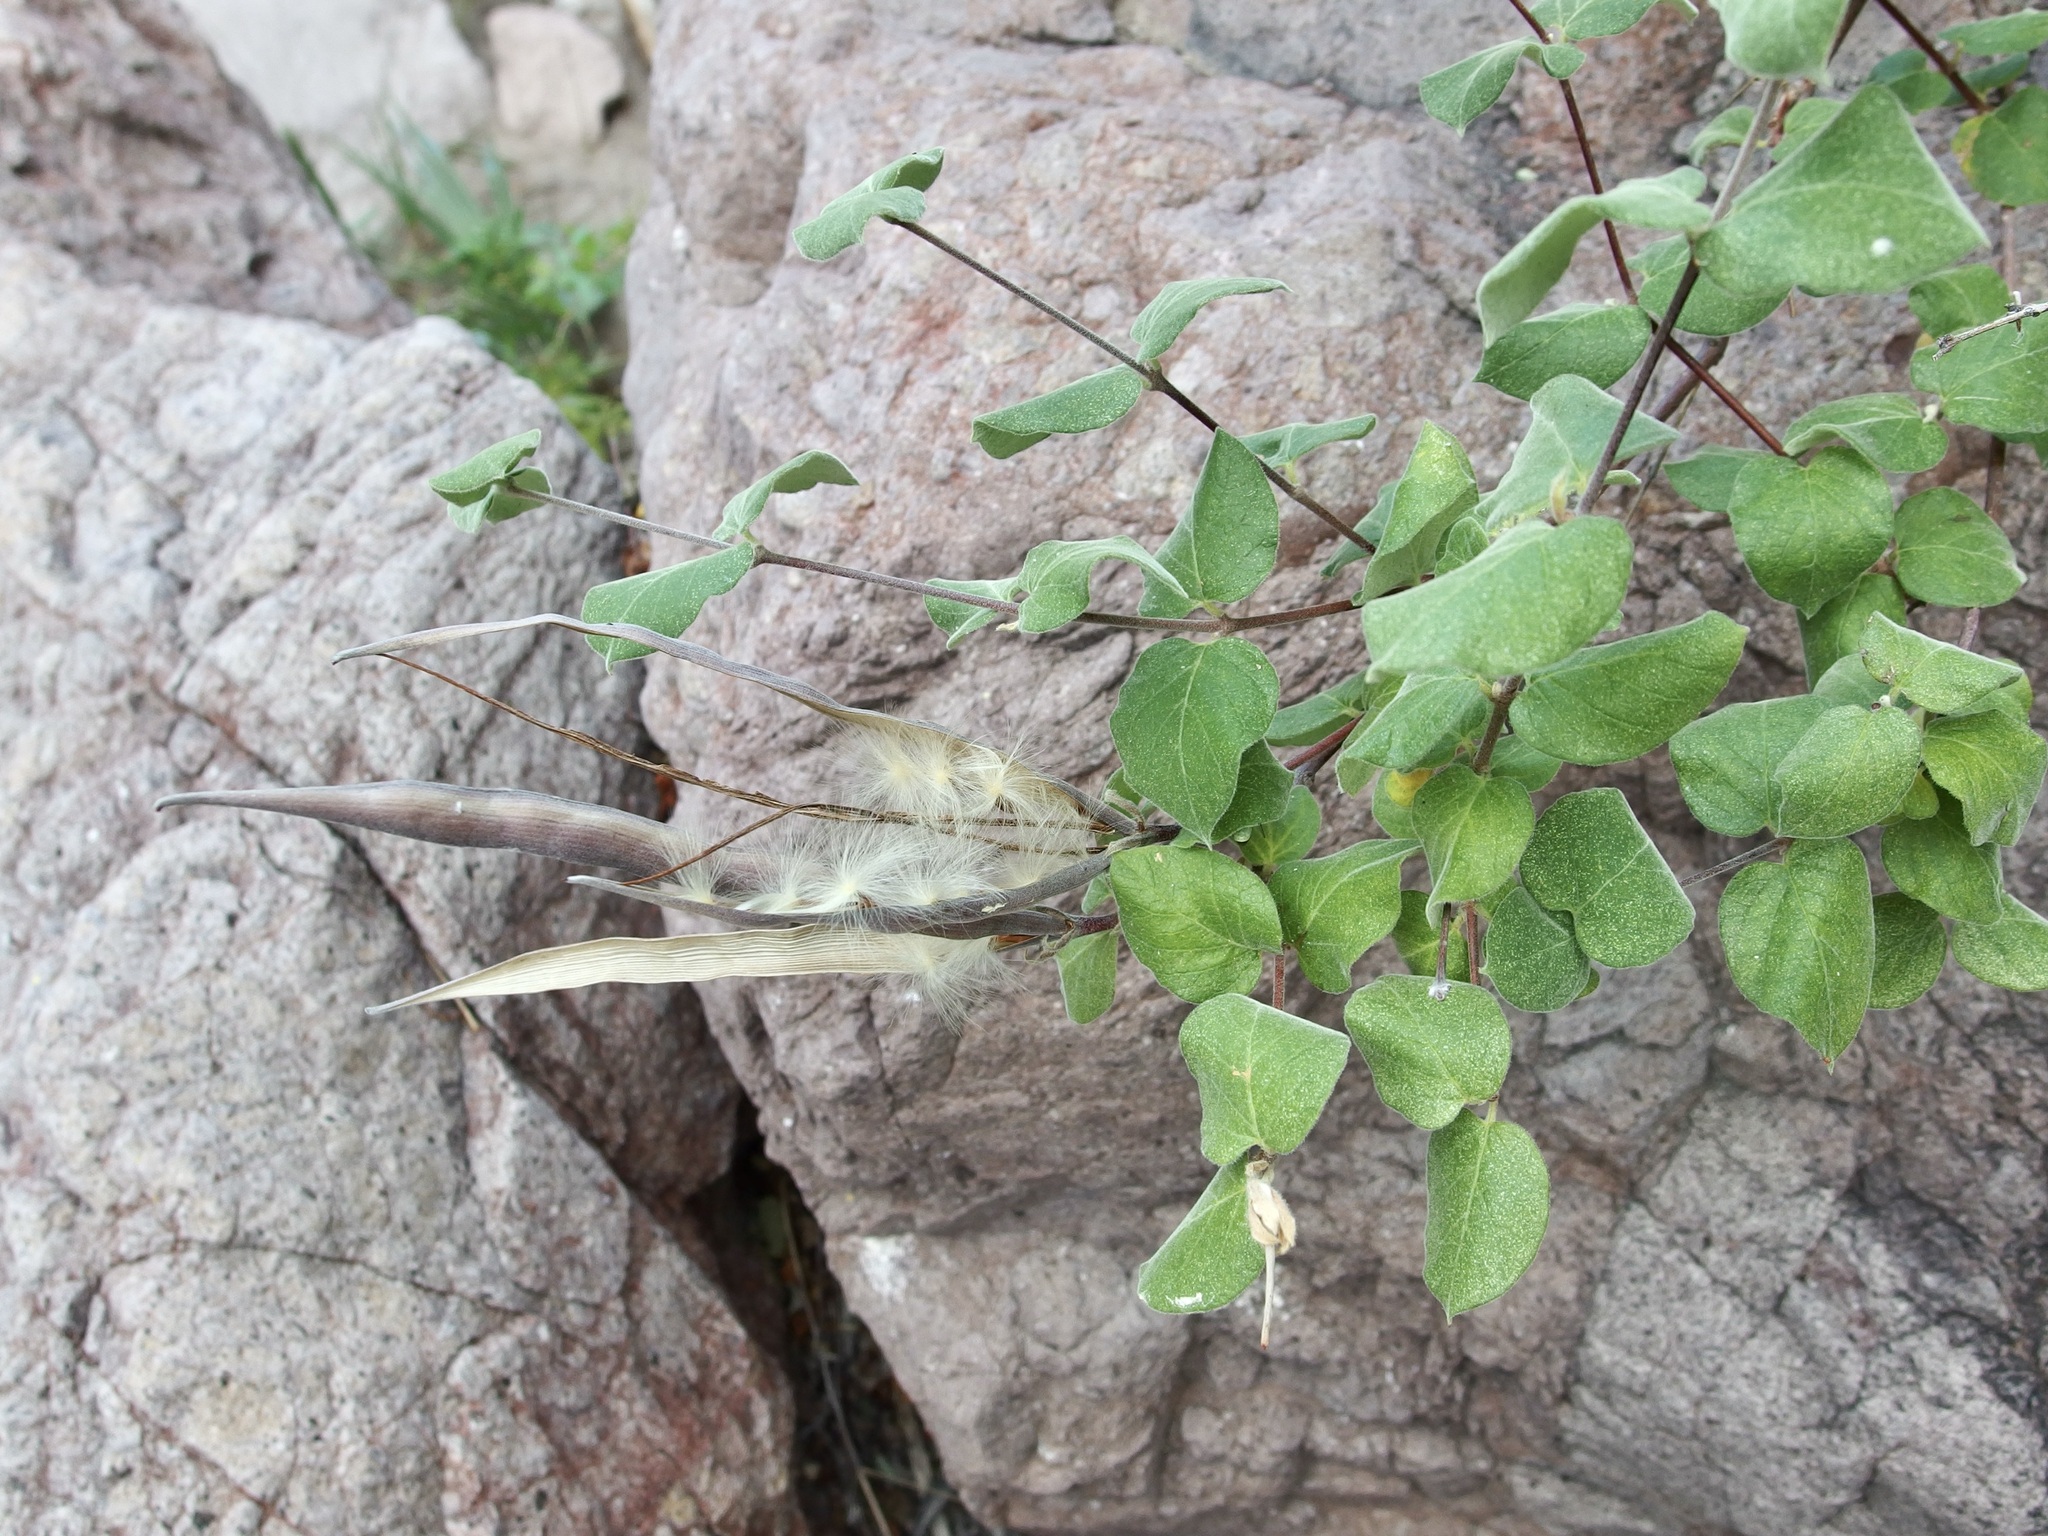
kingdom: Plantae
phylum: Tracheophyta
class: Magnoliopsida
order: Gentianales
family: Apocynaceae
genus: Mandevilla
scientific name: Mandevilla hesperia
